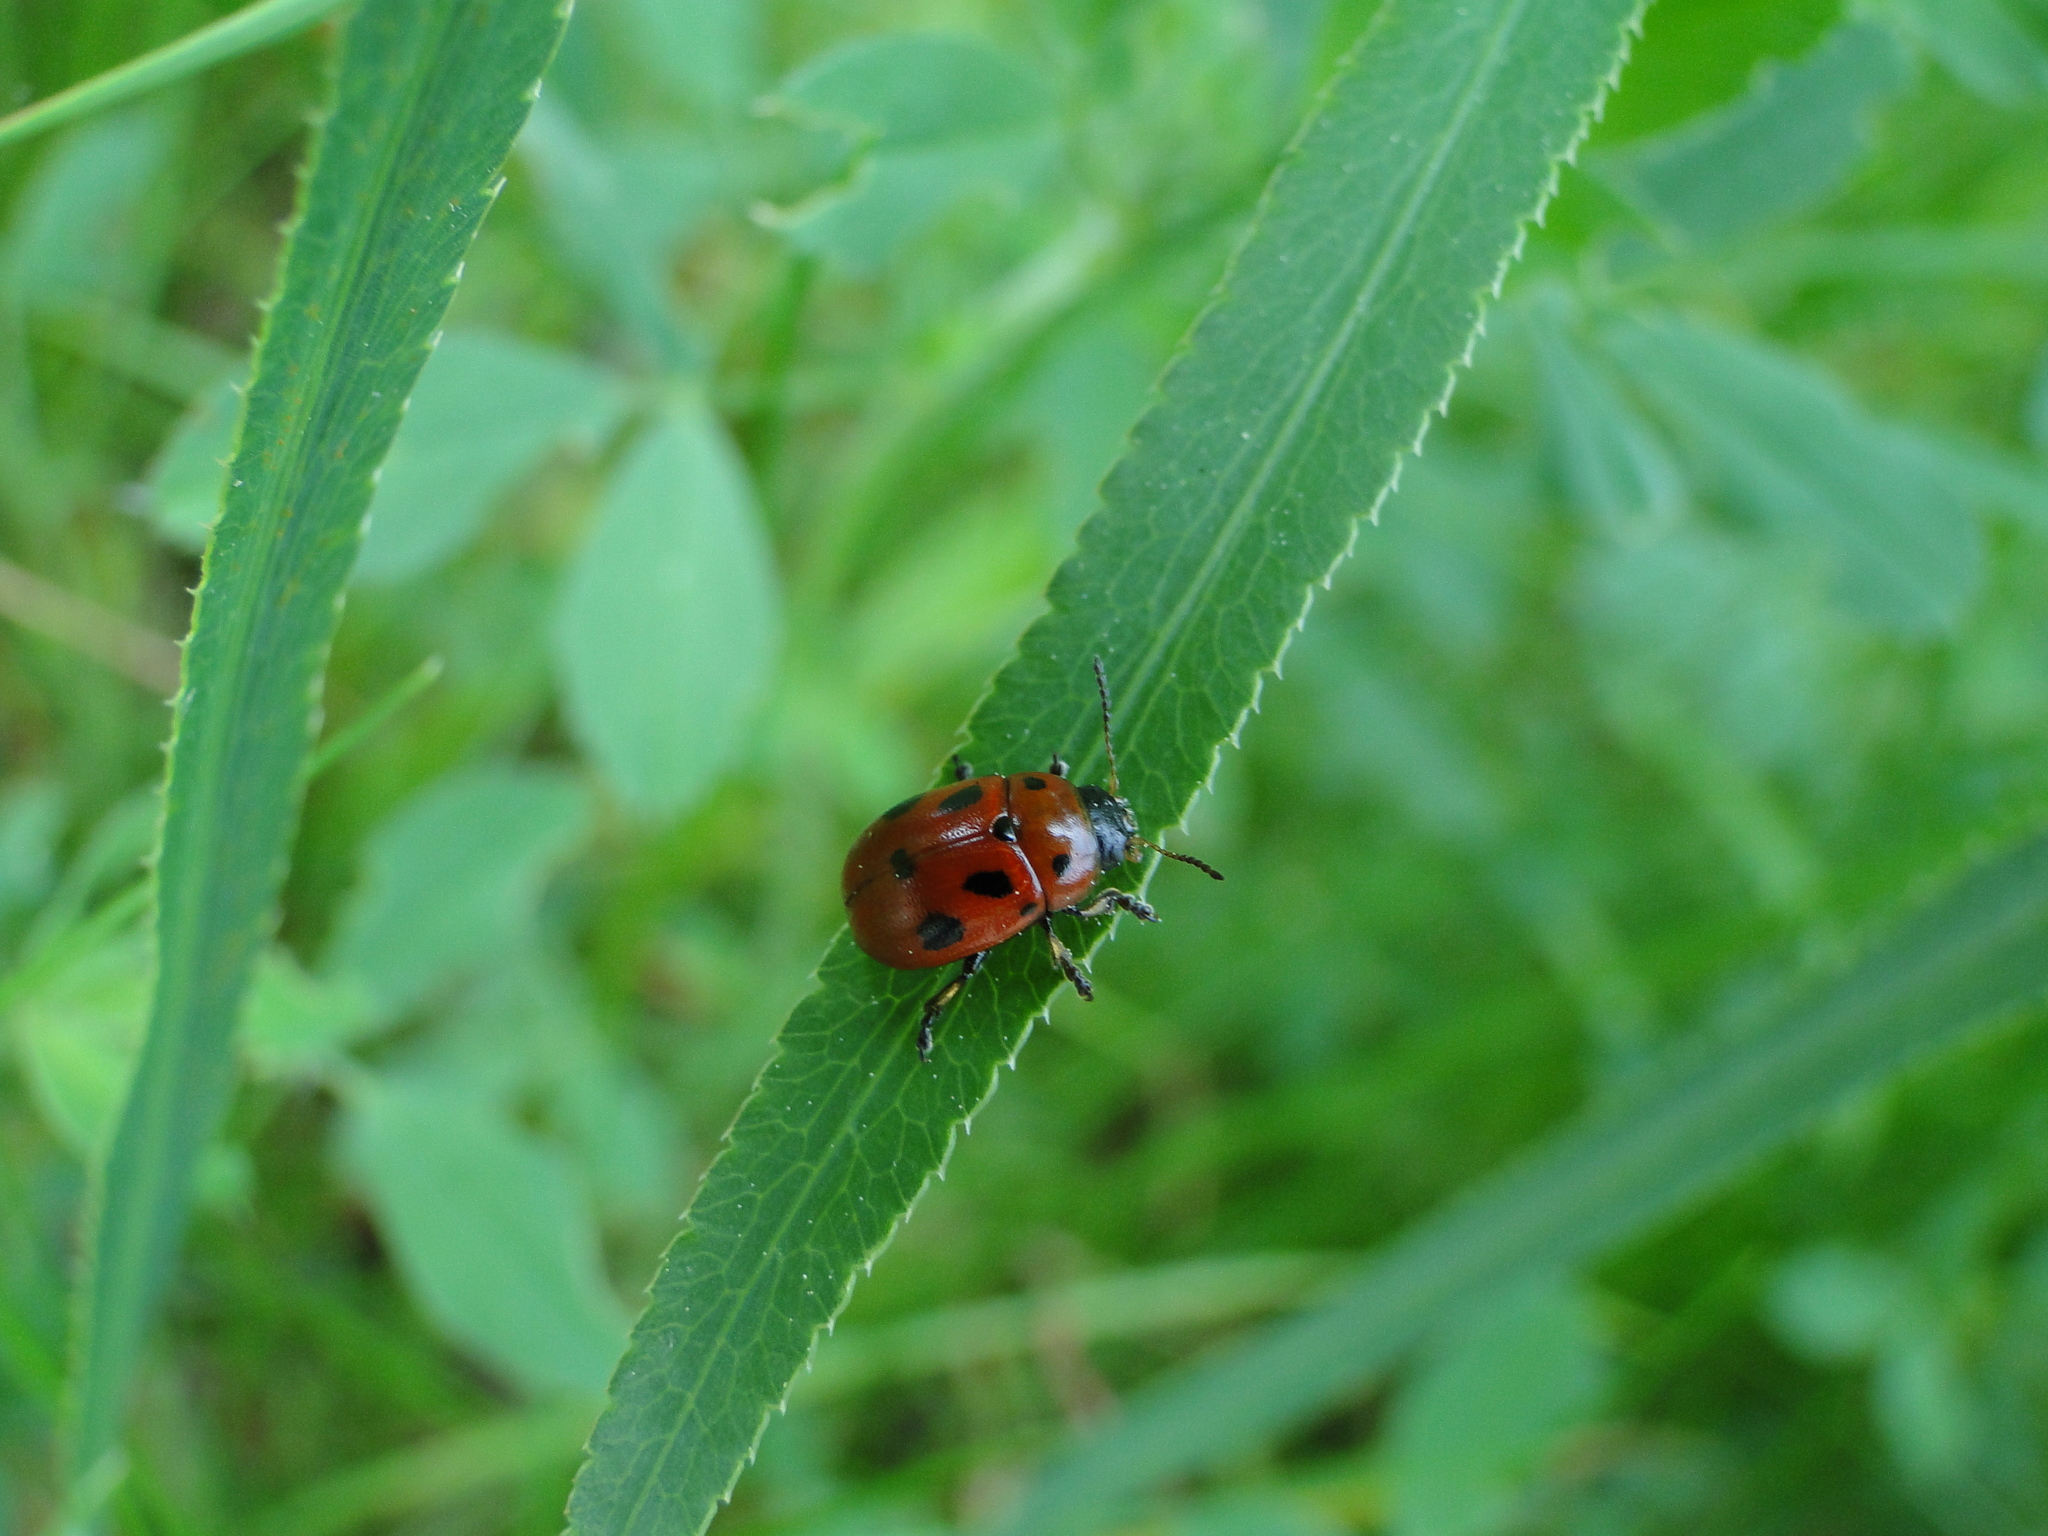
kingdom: Animalia
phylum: Arthropoda
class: Insecta
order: Coleoptera
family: Chrysomelidae
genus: Gonioctena
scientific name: Gonioctena fornicata
